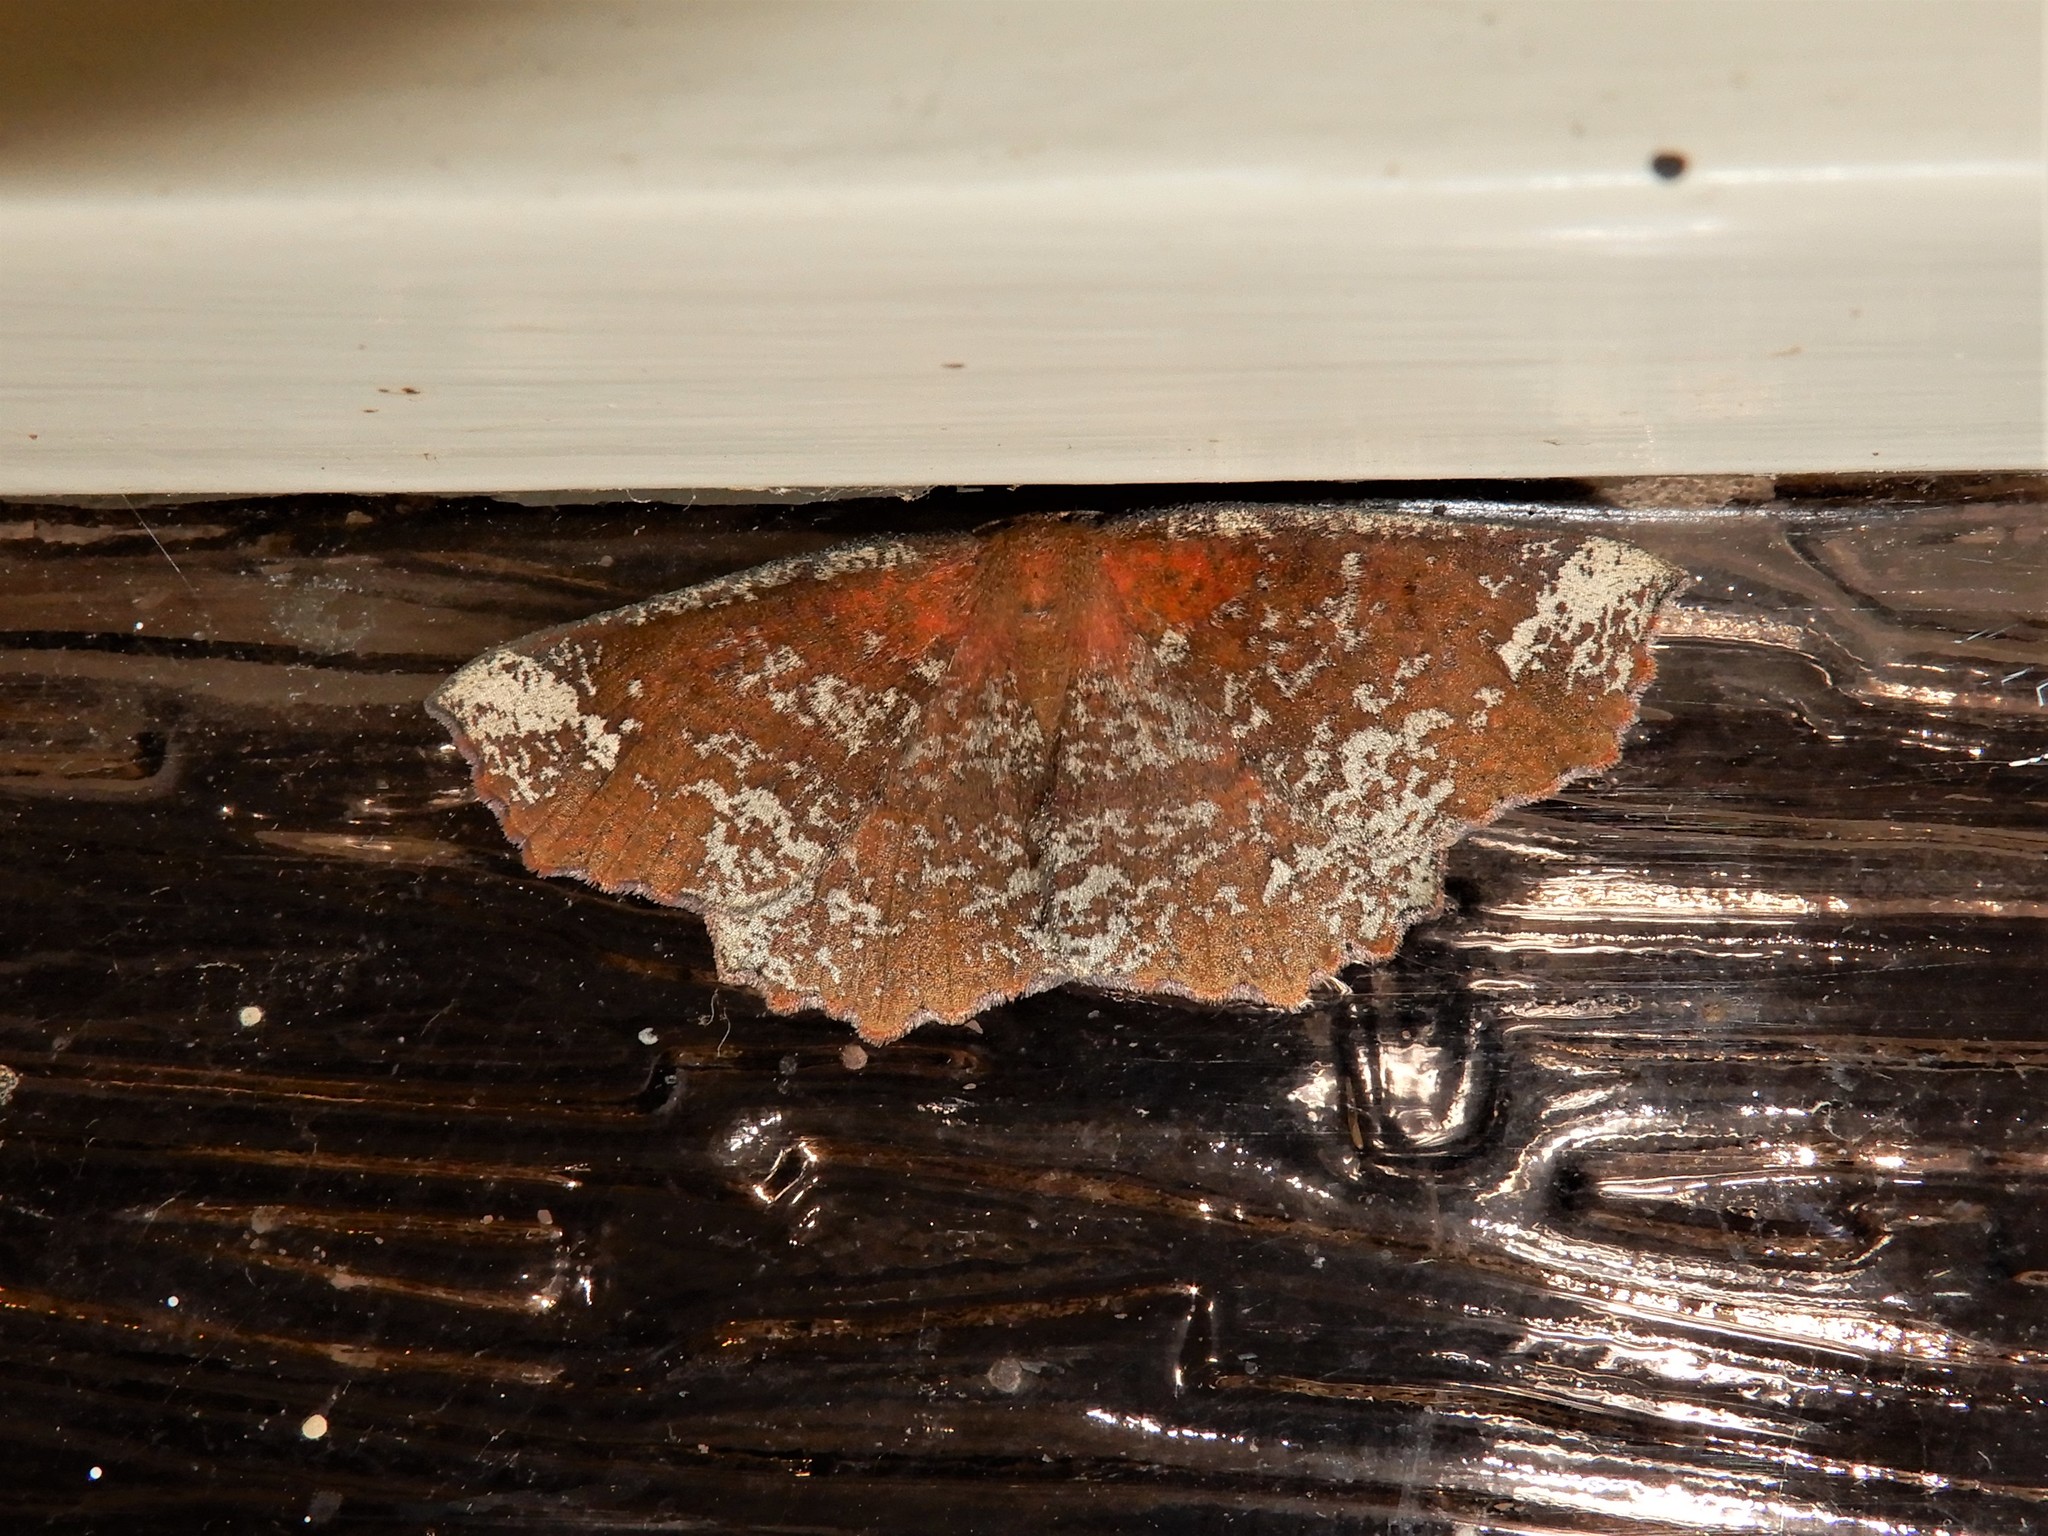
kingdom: Animalia
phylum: Arthropoda
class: Insecta
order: Lepidoptera
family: Geometridae
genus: Xyridacma
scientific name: Xyridacma ustaria
